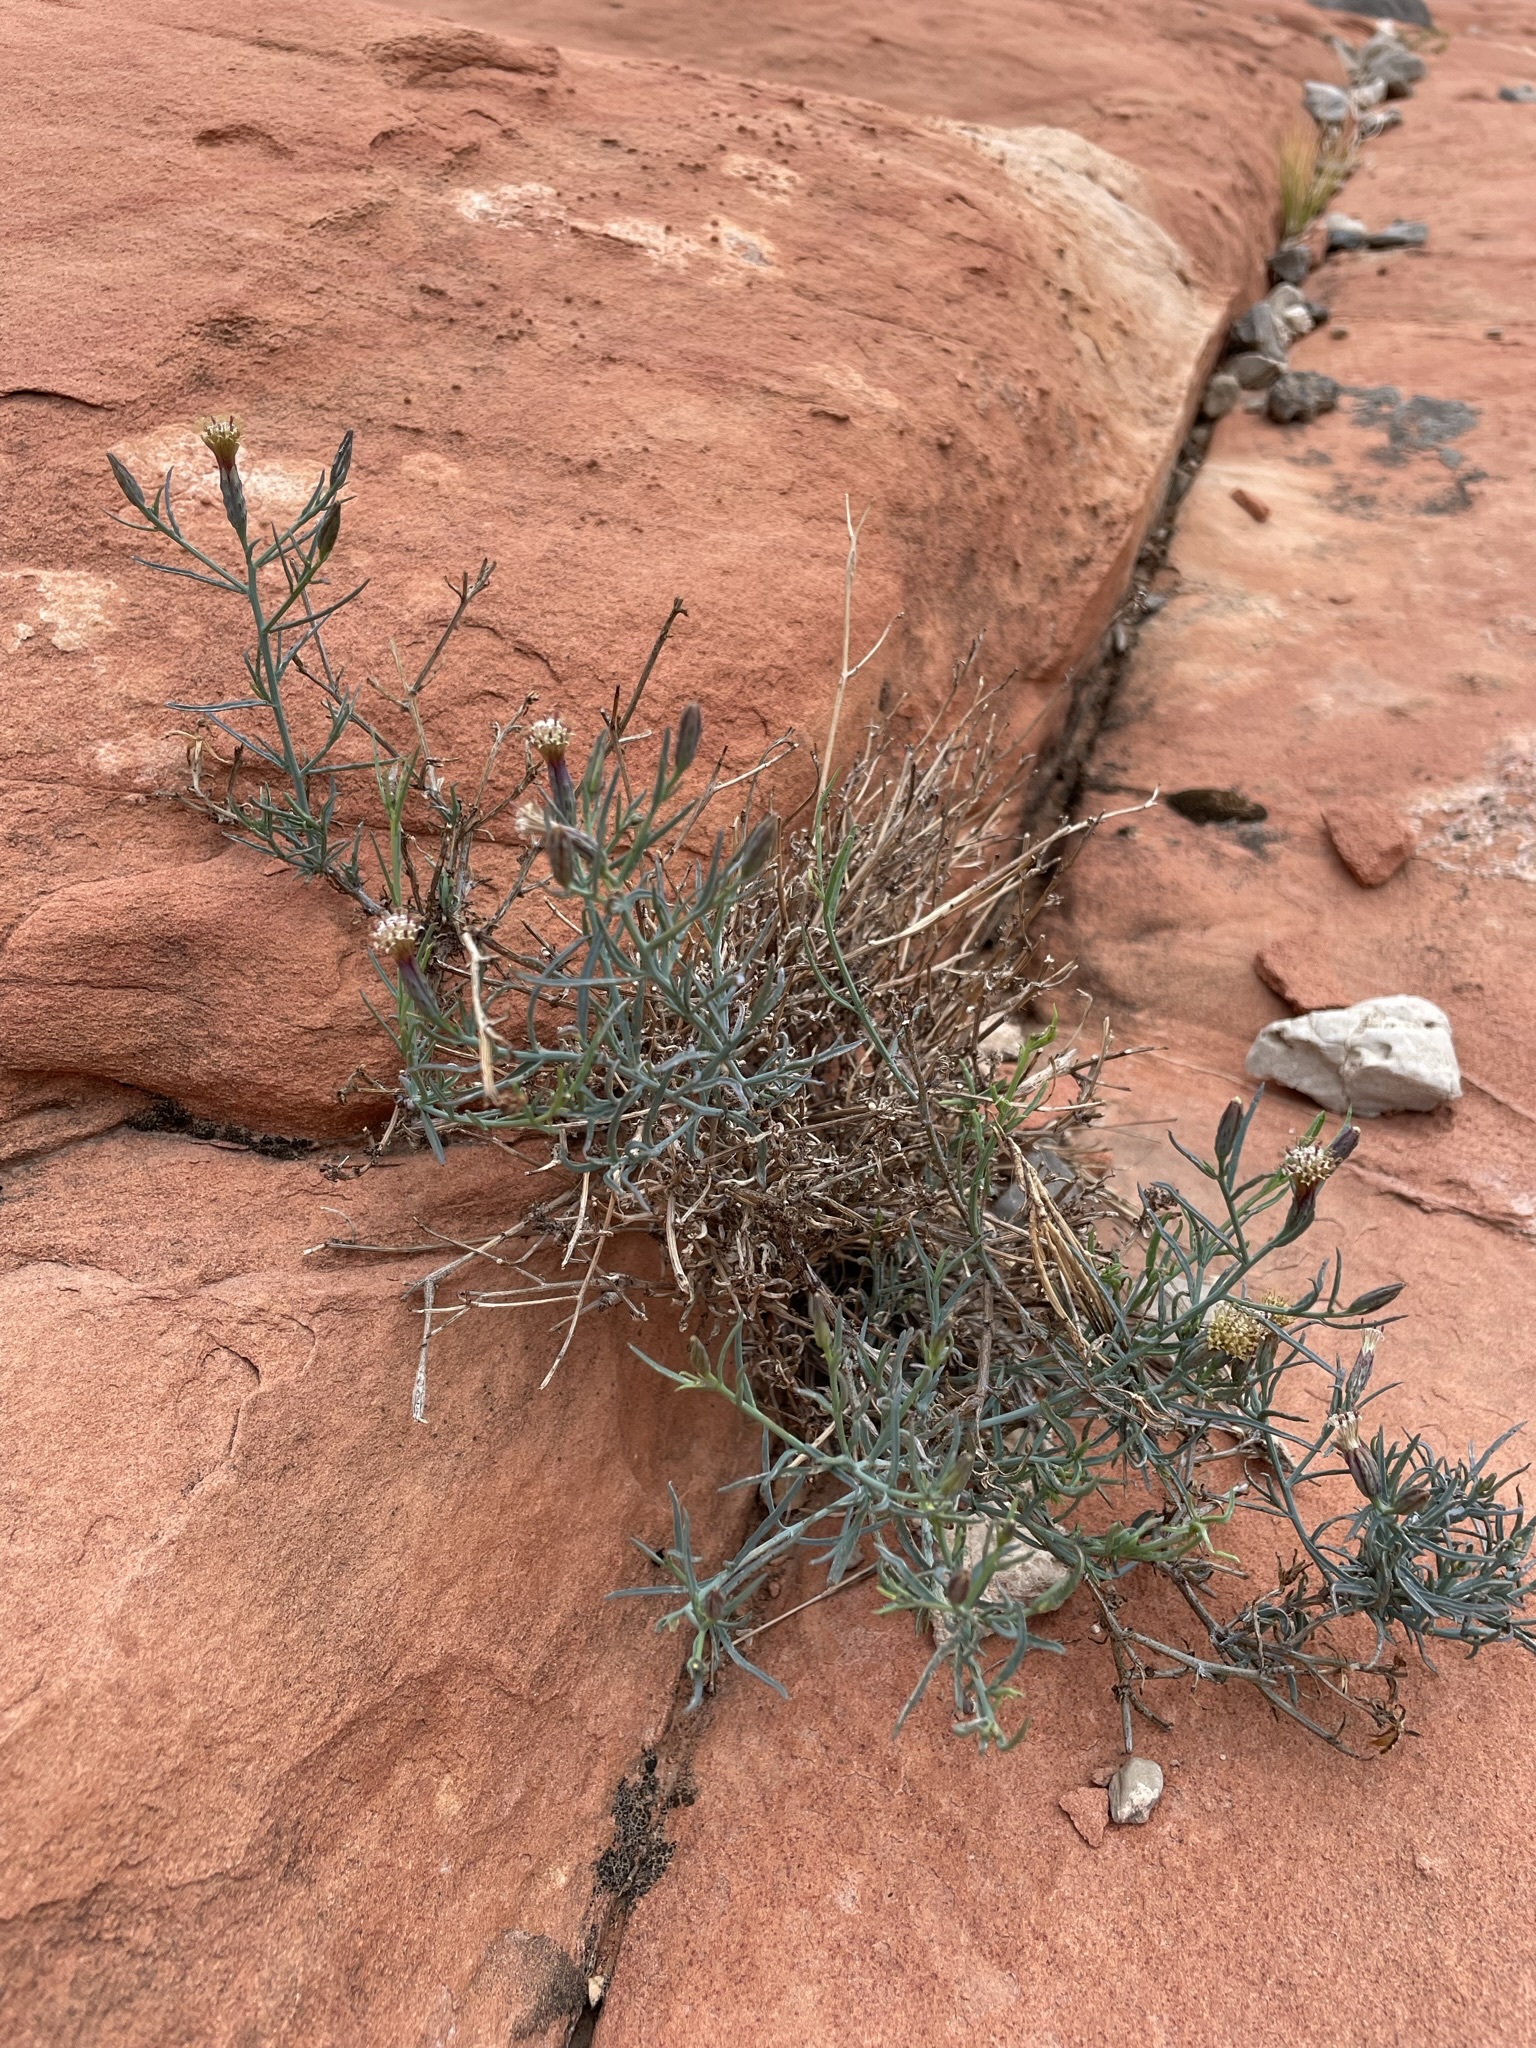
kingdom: Plantae
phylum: Tracheophyta
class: Magnoliopsida
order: Asterales
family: Asteraceae
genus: Porophyllum
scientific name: Porophyllum gracile
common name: Odora
